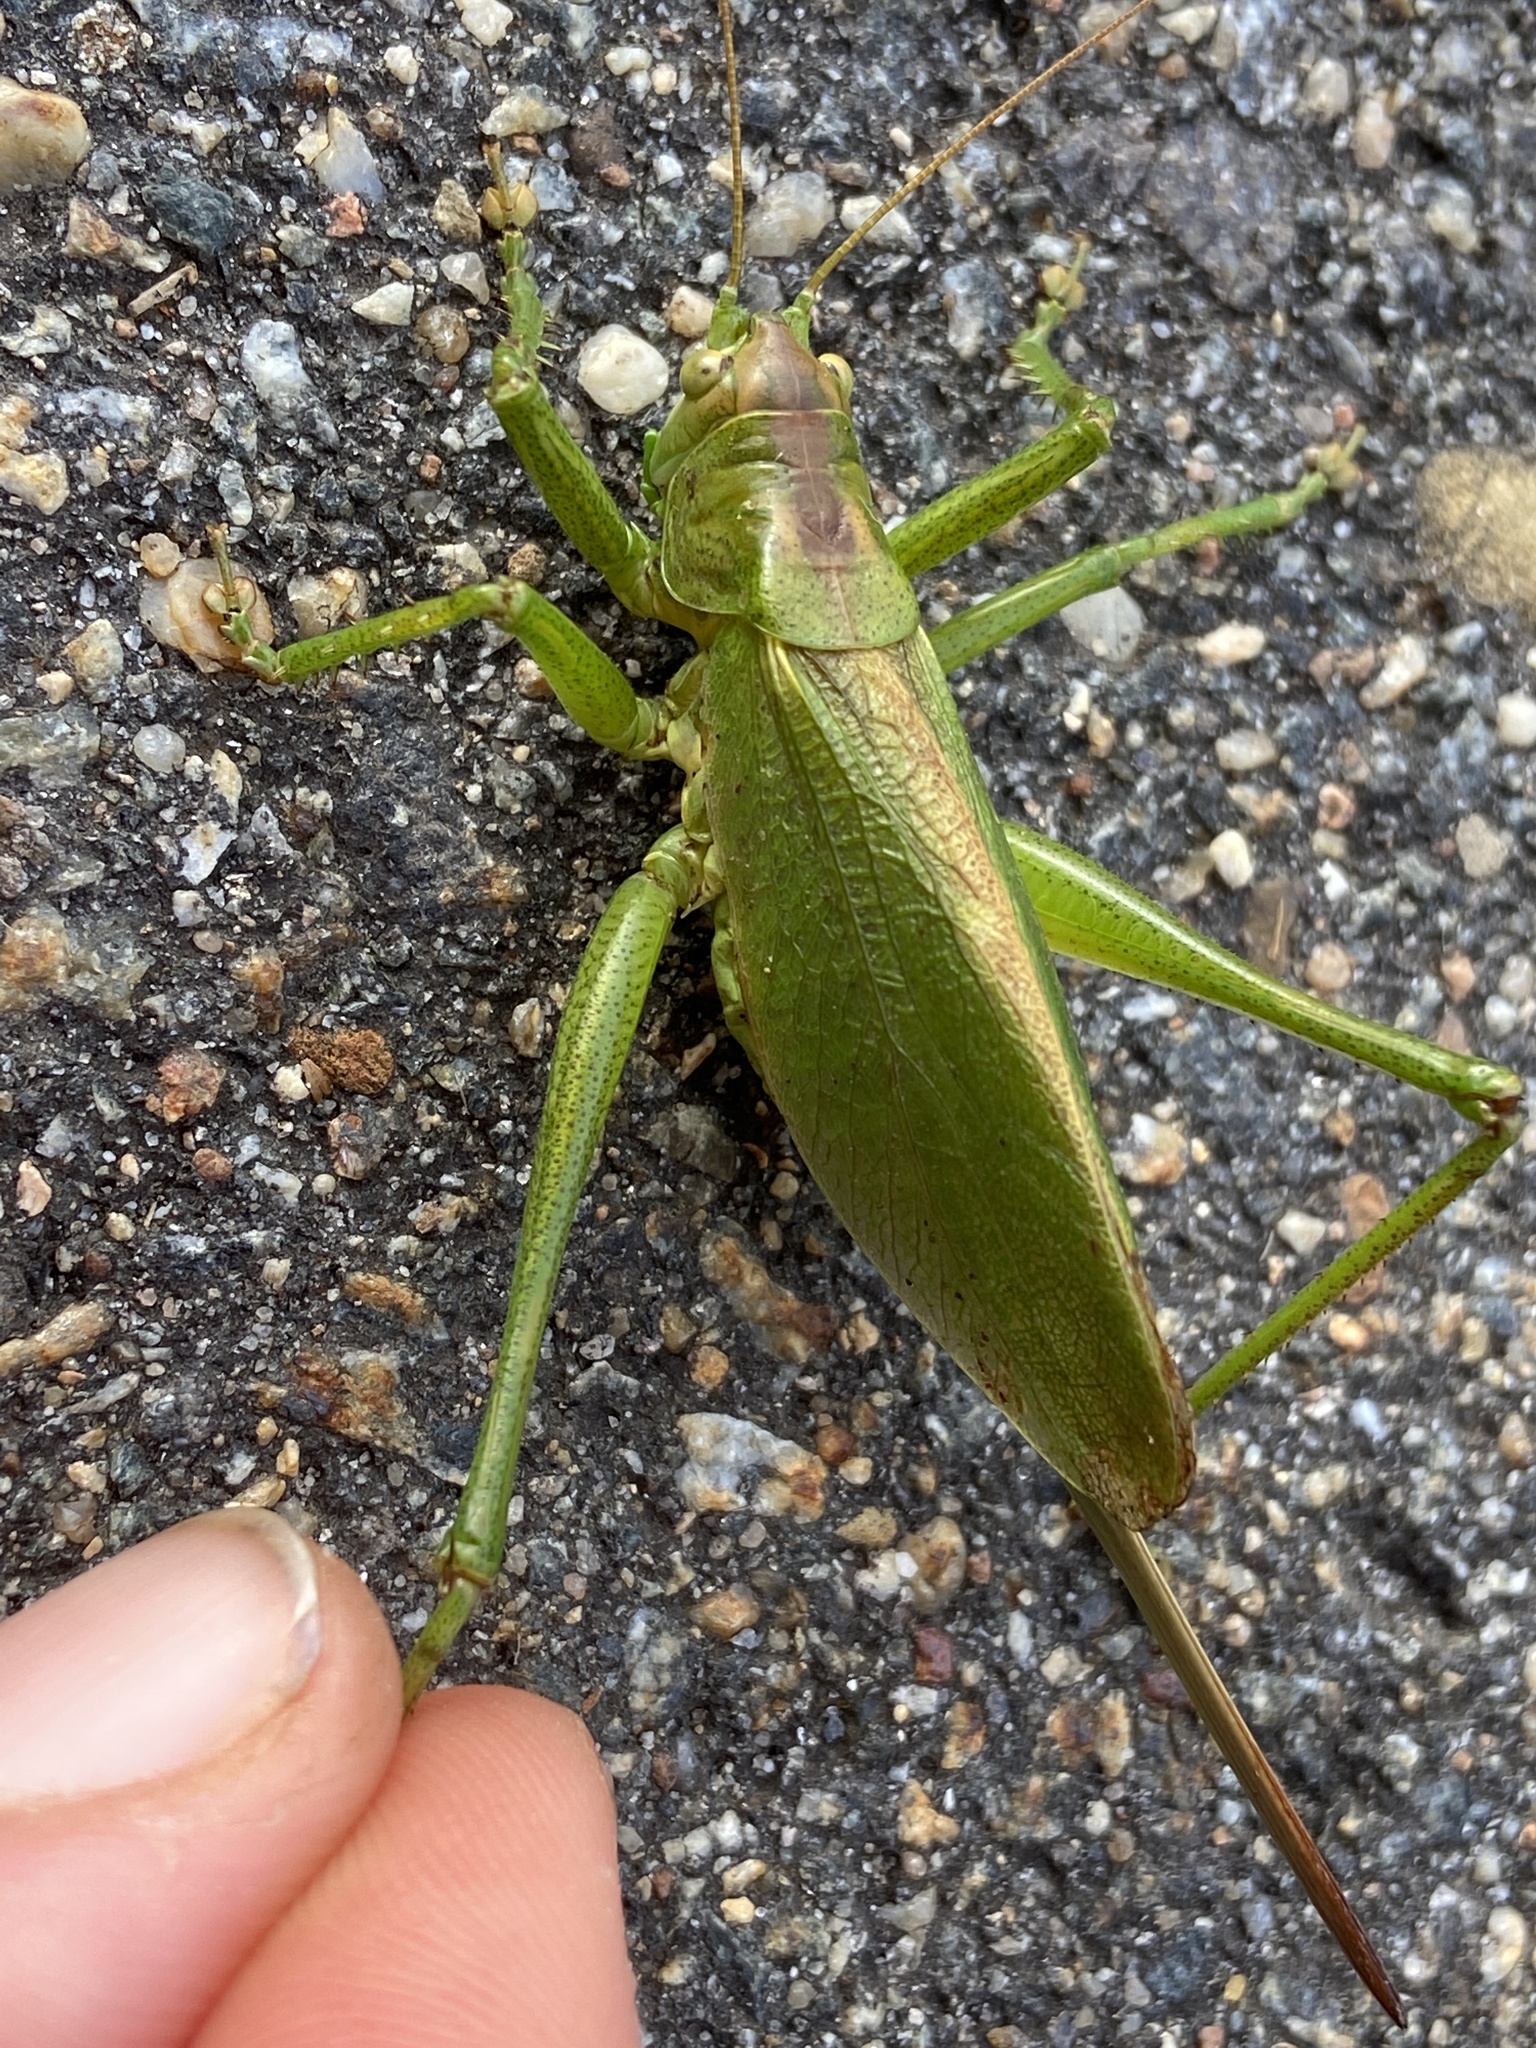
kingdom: Animalia
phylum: Arthropoda
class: Insecta
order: Orthoptera
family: Tettigoniidae
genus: Tettigonia
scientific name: Tettigonia cantans
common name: Upland green bush-cricket
